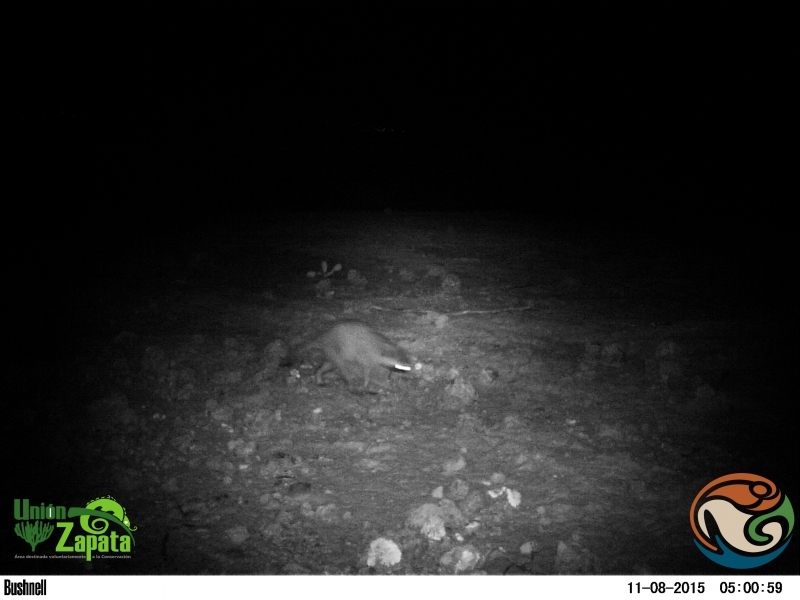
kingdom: Animalia
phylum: Chordata
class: Mammalia
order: Carnivora
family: Procyonidae
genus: Procyon
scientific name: Procyon lotor
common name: Raccoon
